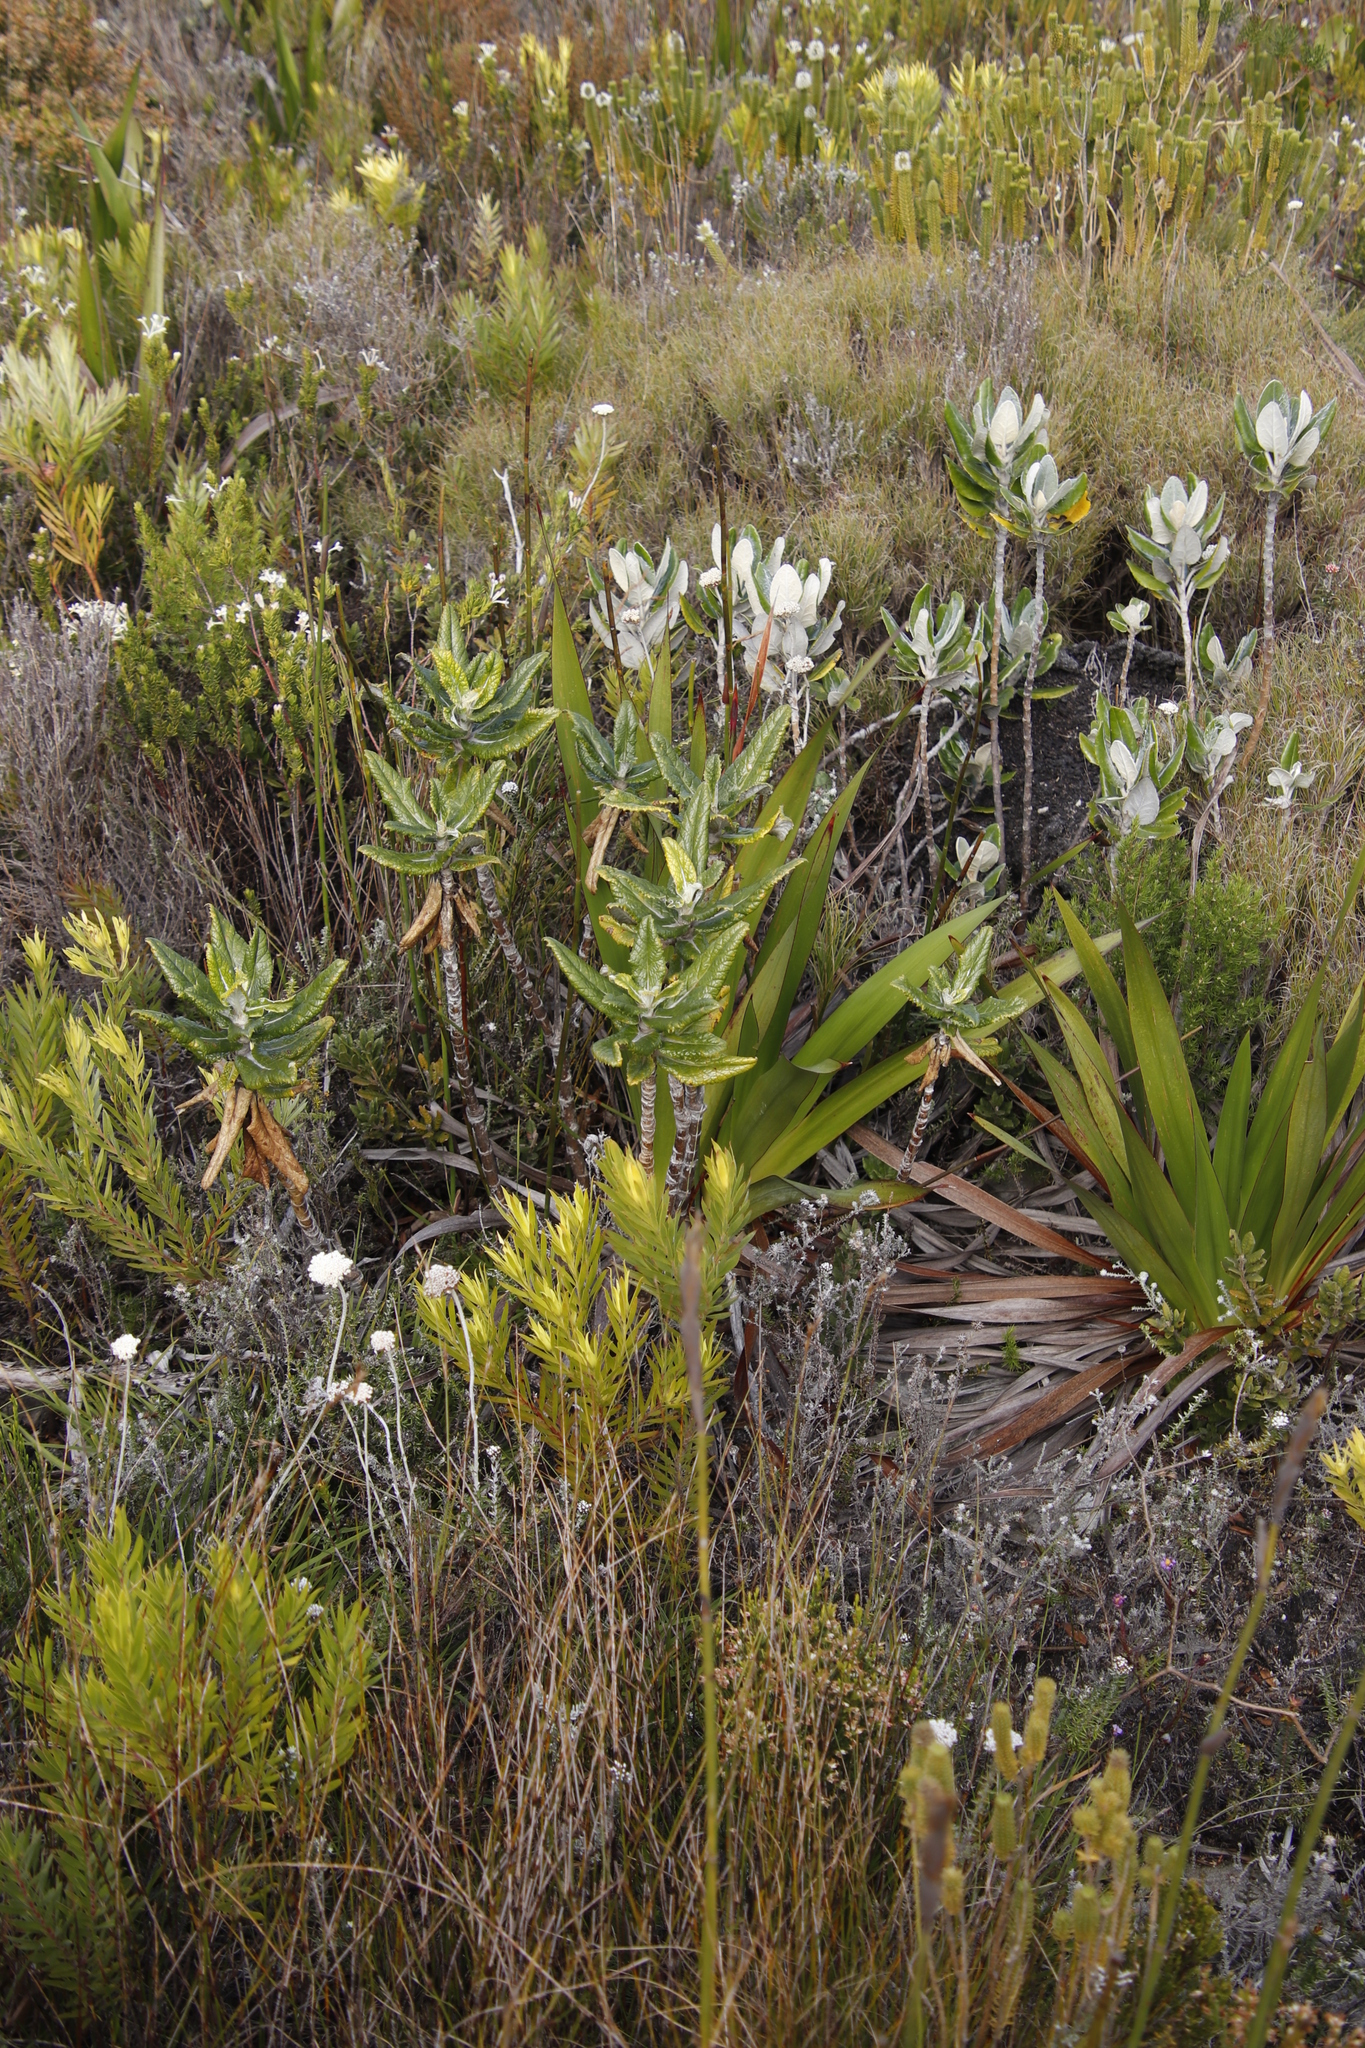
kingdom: Plantae
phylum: Tracheophyta
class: Magnoliopsida
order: Apiales
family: Apiaceae
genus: Hermas
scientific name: Hermas villosa
